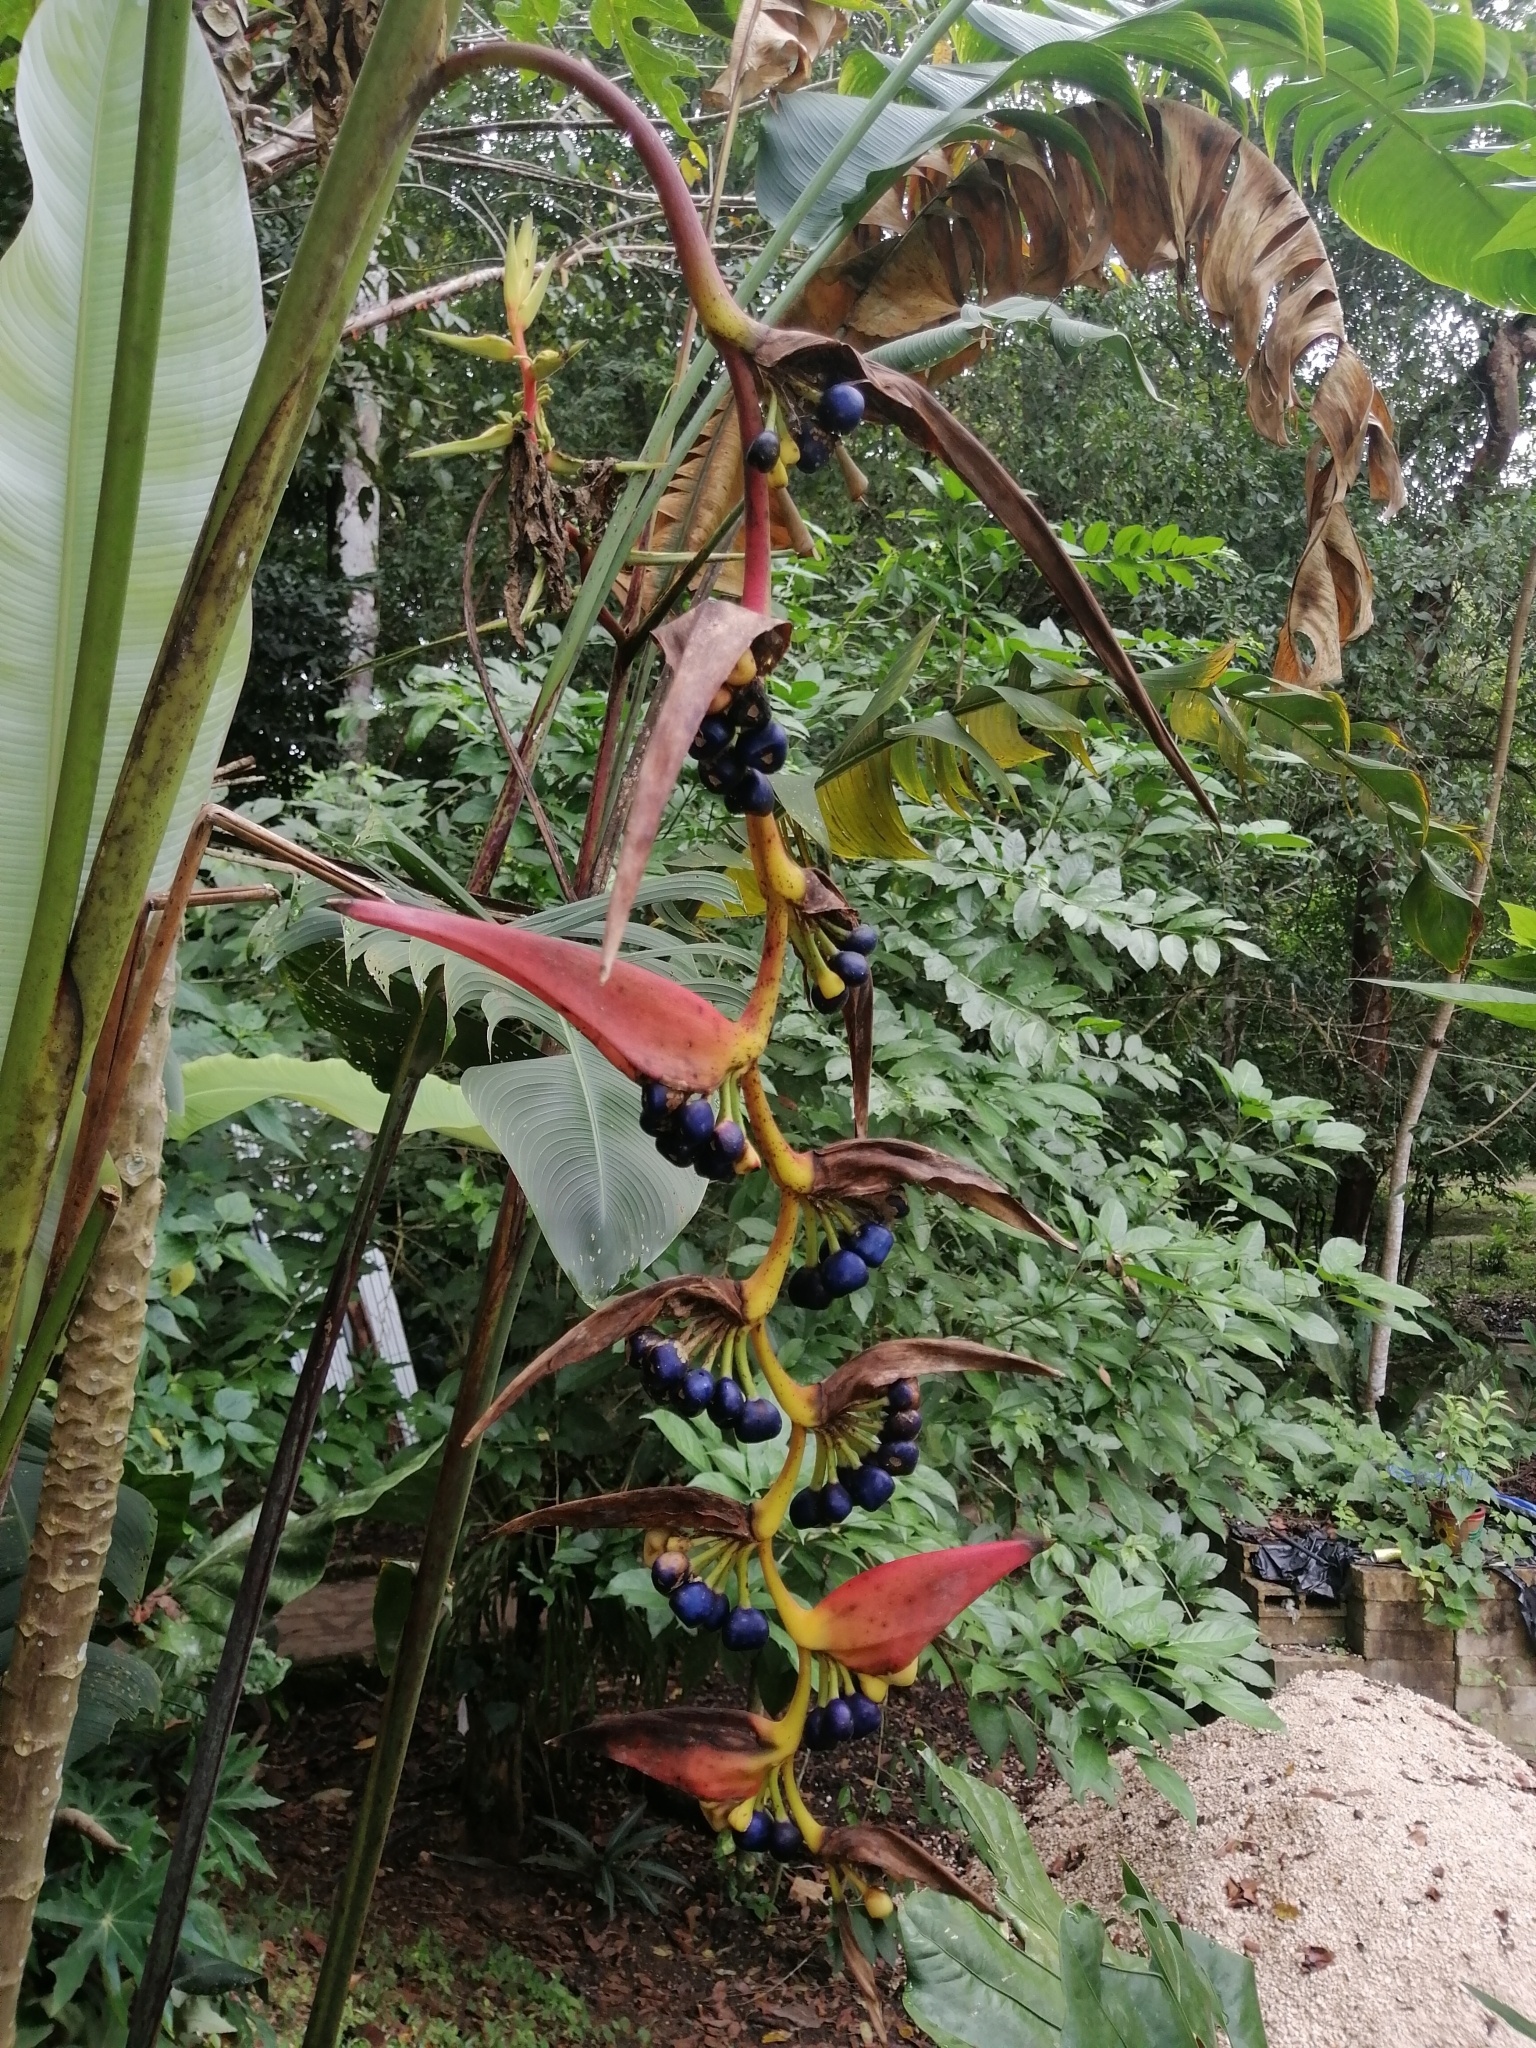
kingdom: Plantae
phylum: Tracheophyta
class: Liliopsida
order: Zingiberales
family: Heliconiaceae
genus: Heliconia
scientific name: Heliconia collinsiana
